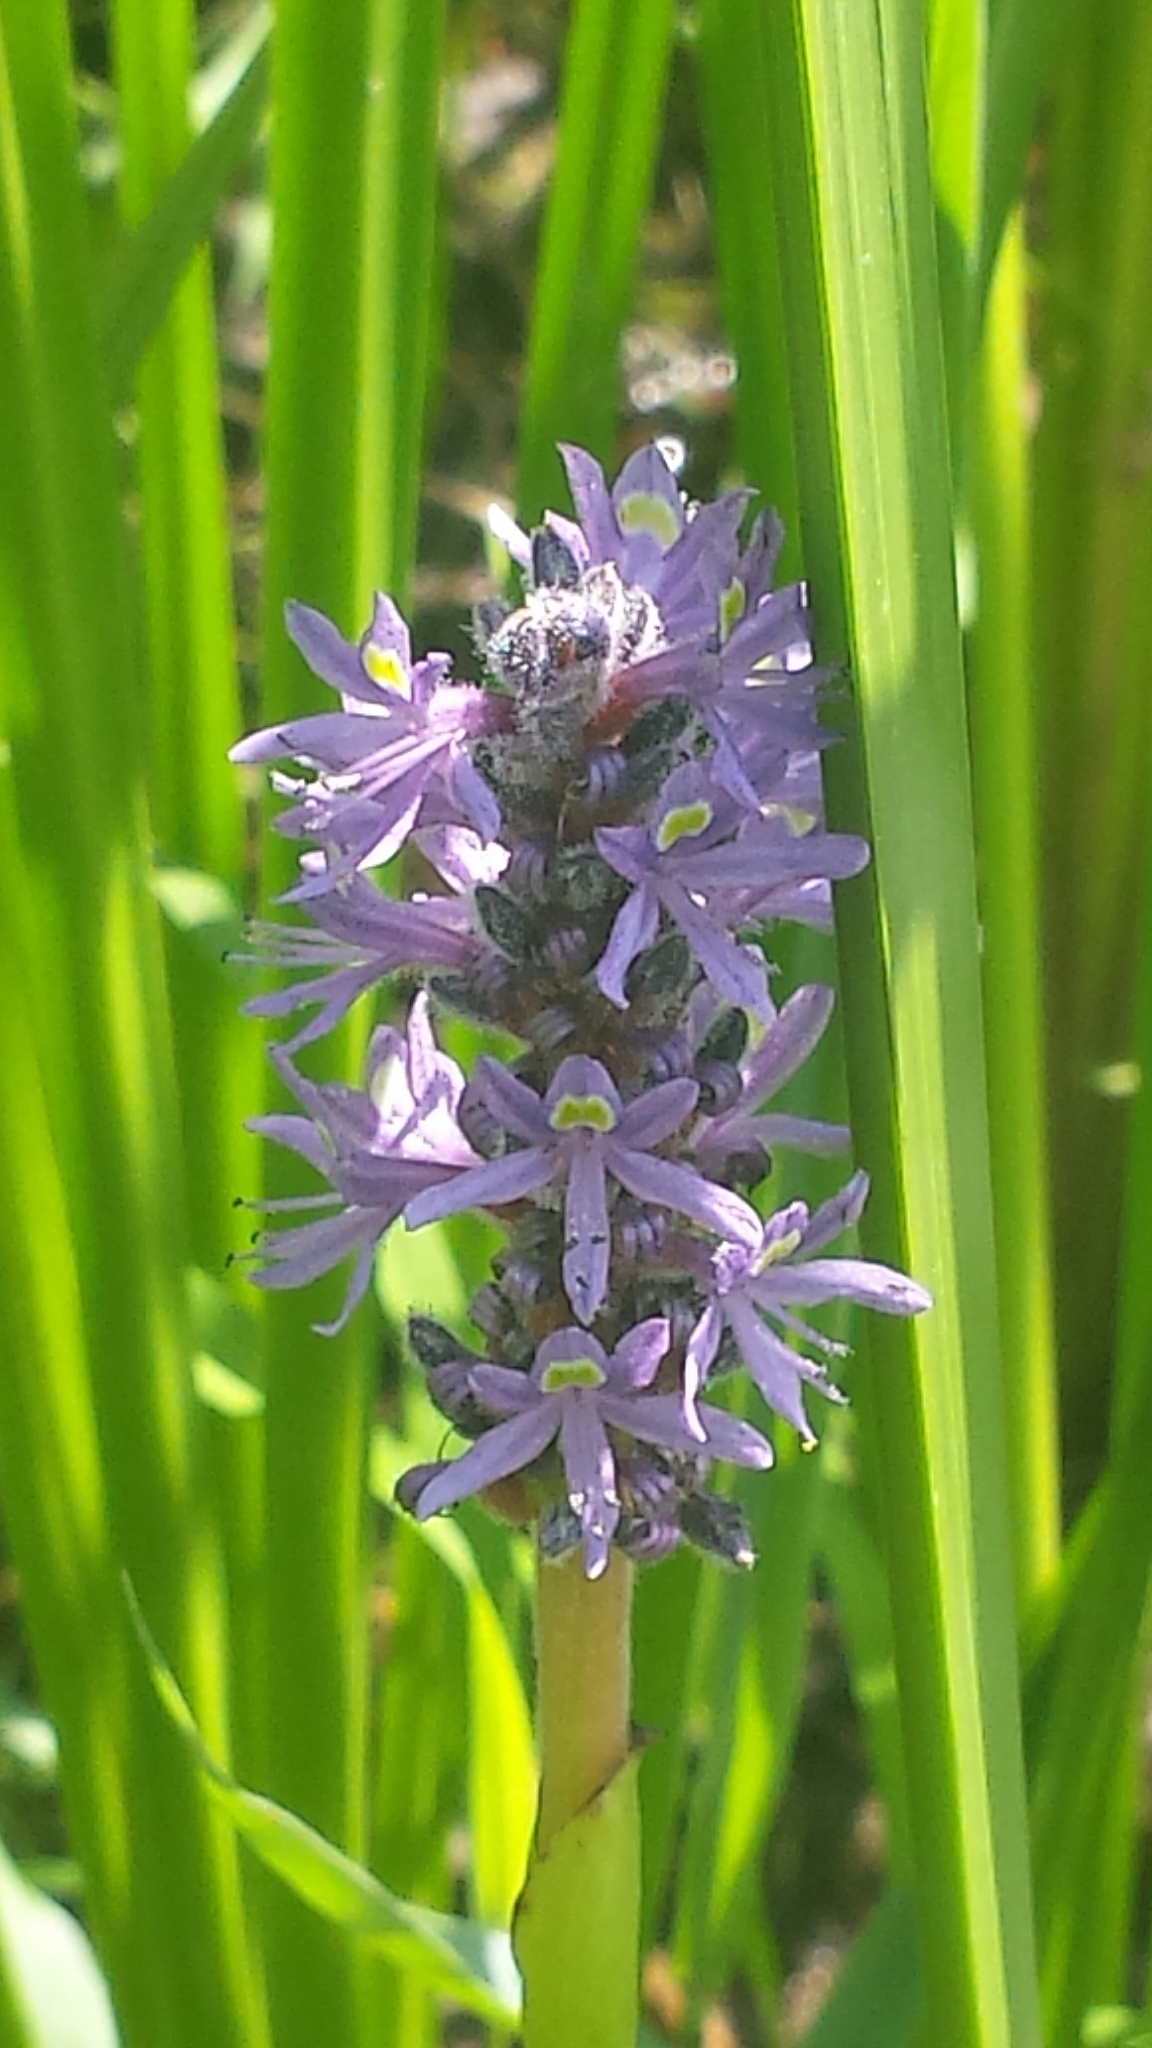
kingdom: Plantae
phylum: Tracheophyta
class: Liliopsida
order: Commelinales
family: Pontederiaceae
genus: Pontederia
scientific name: Pontederia cordata
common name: Pickerelweed
